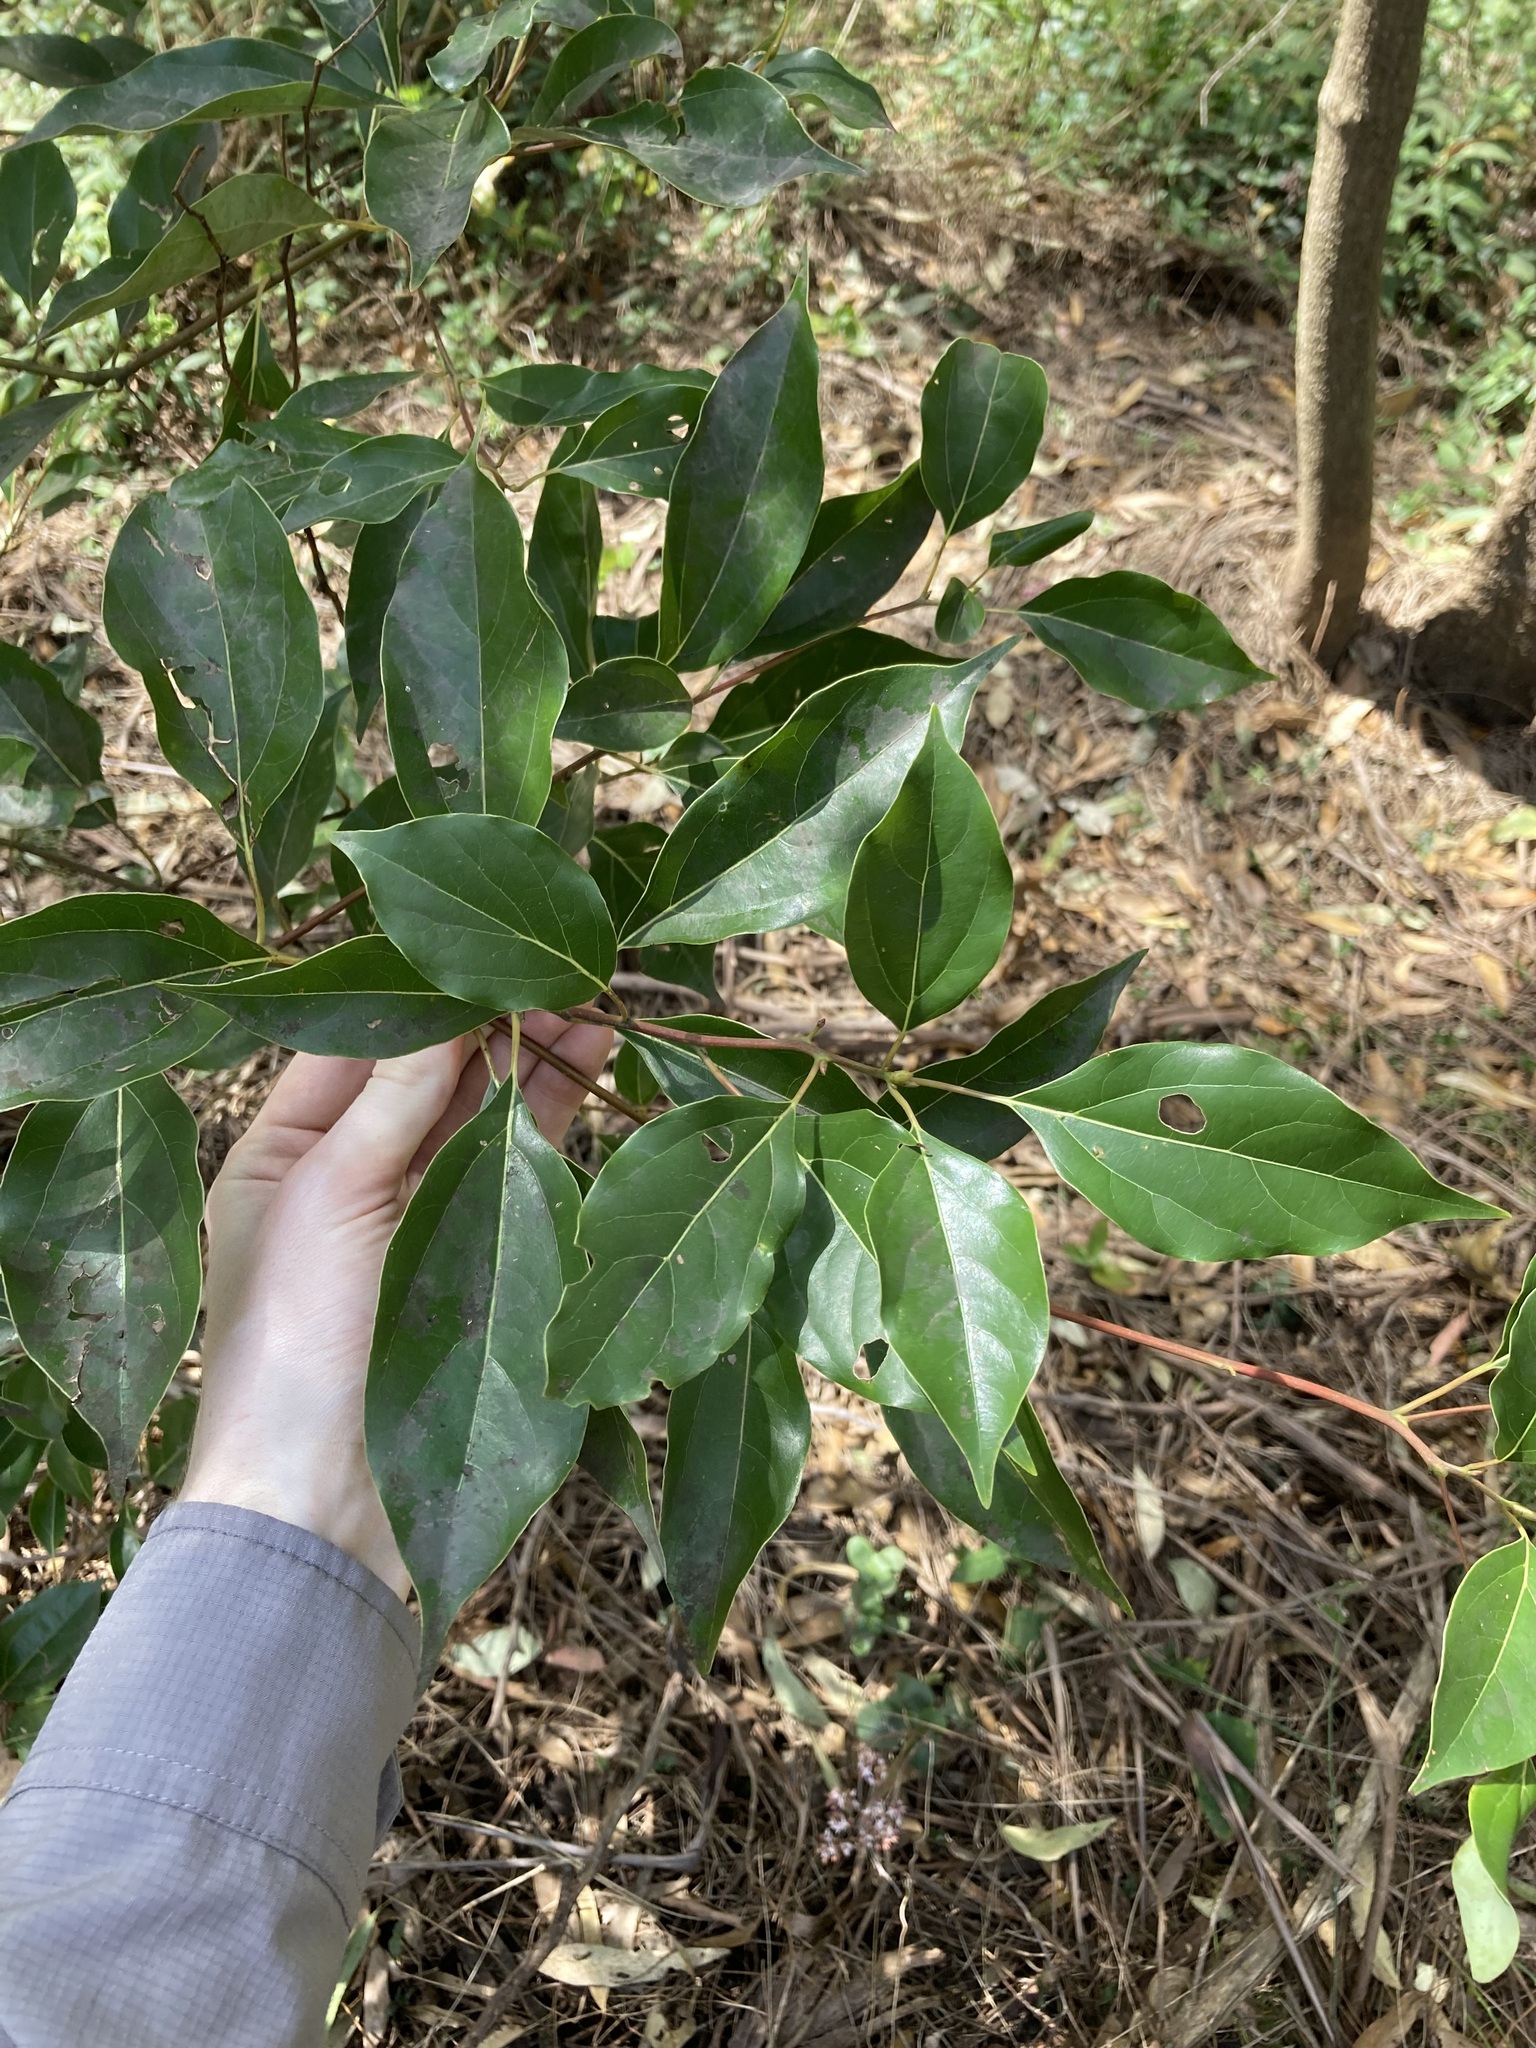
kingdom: Plantae
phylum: Tracheophyta
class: Magnoliopsida
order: Laurales
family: Lauraceae
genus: Cinnamomum
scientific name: Cinnamomum camphora
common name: Camphortree
